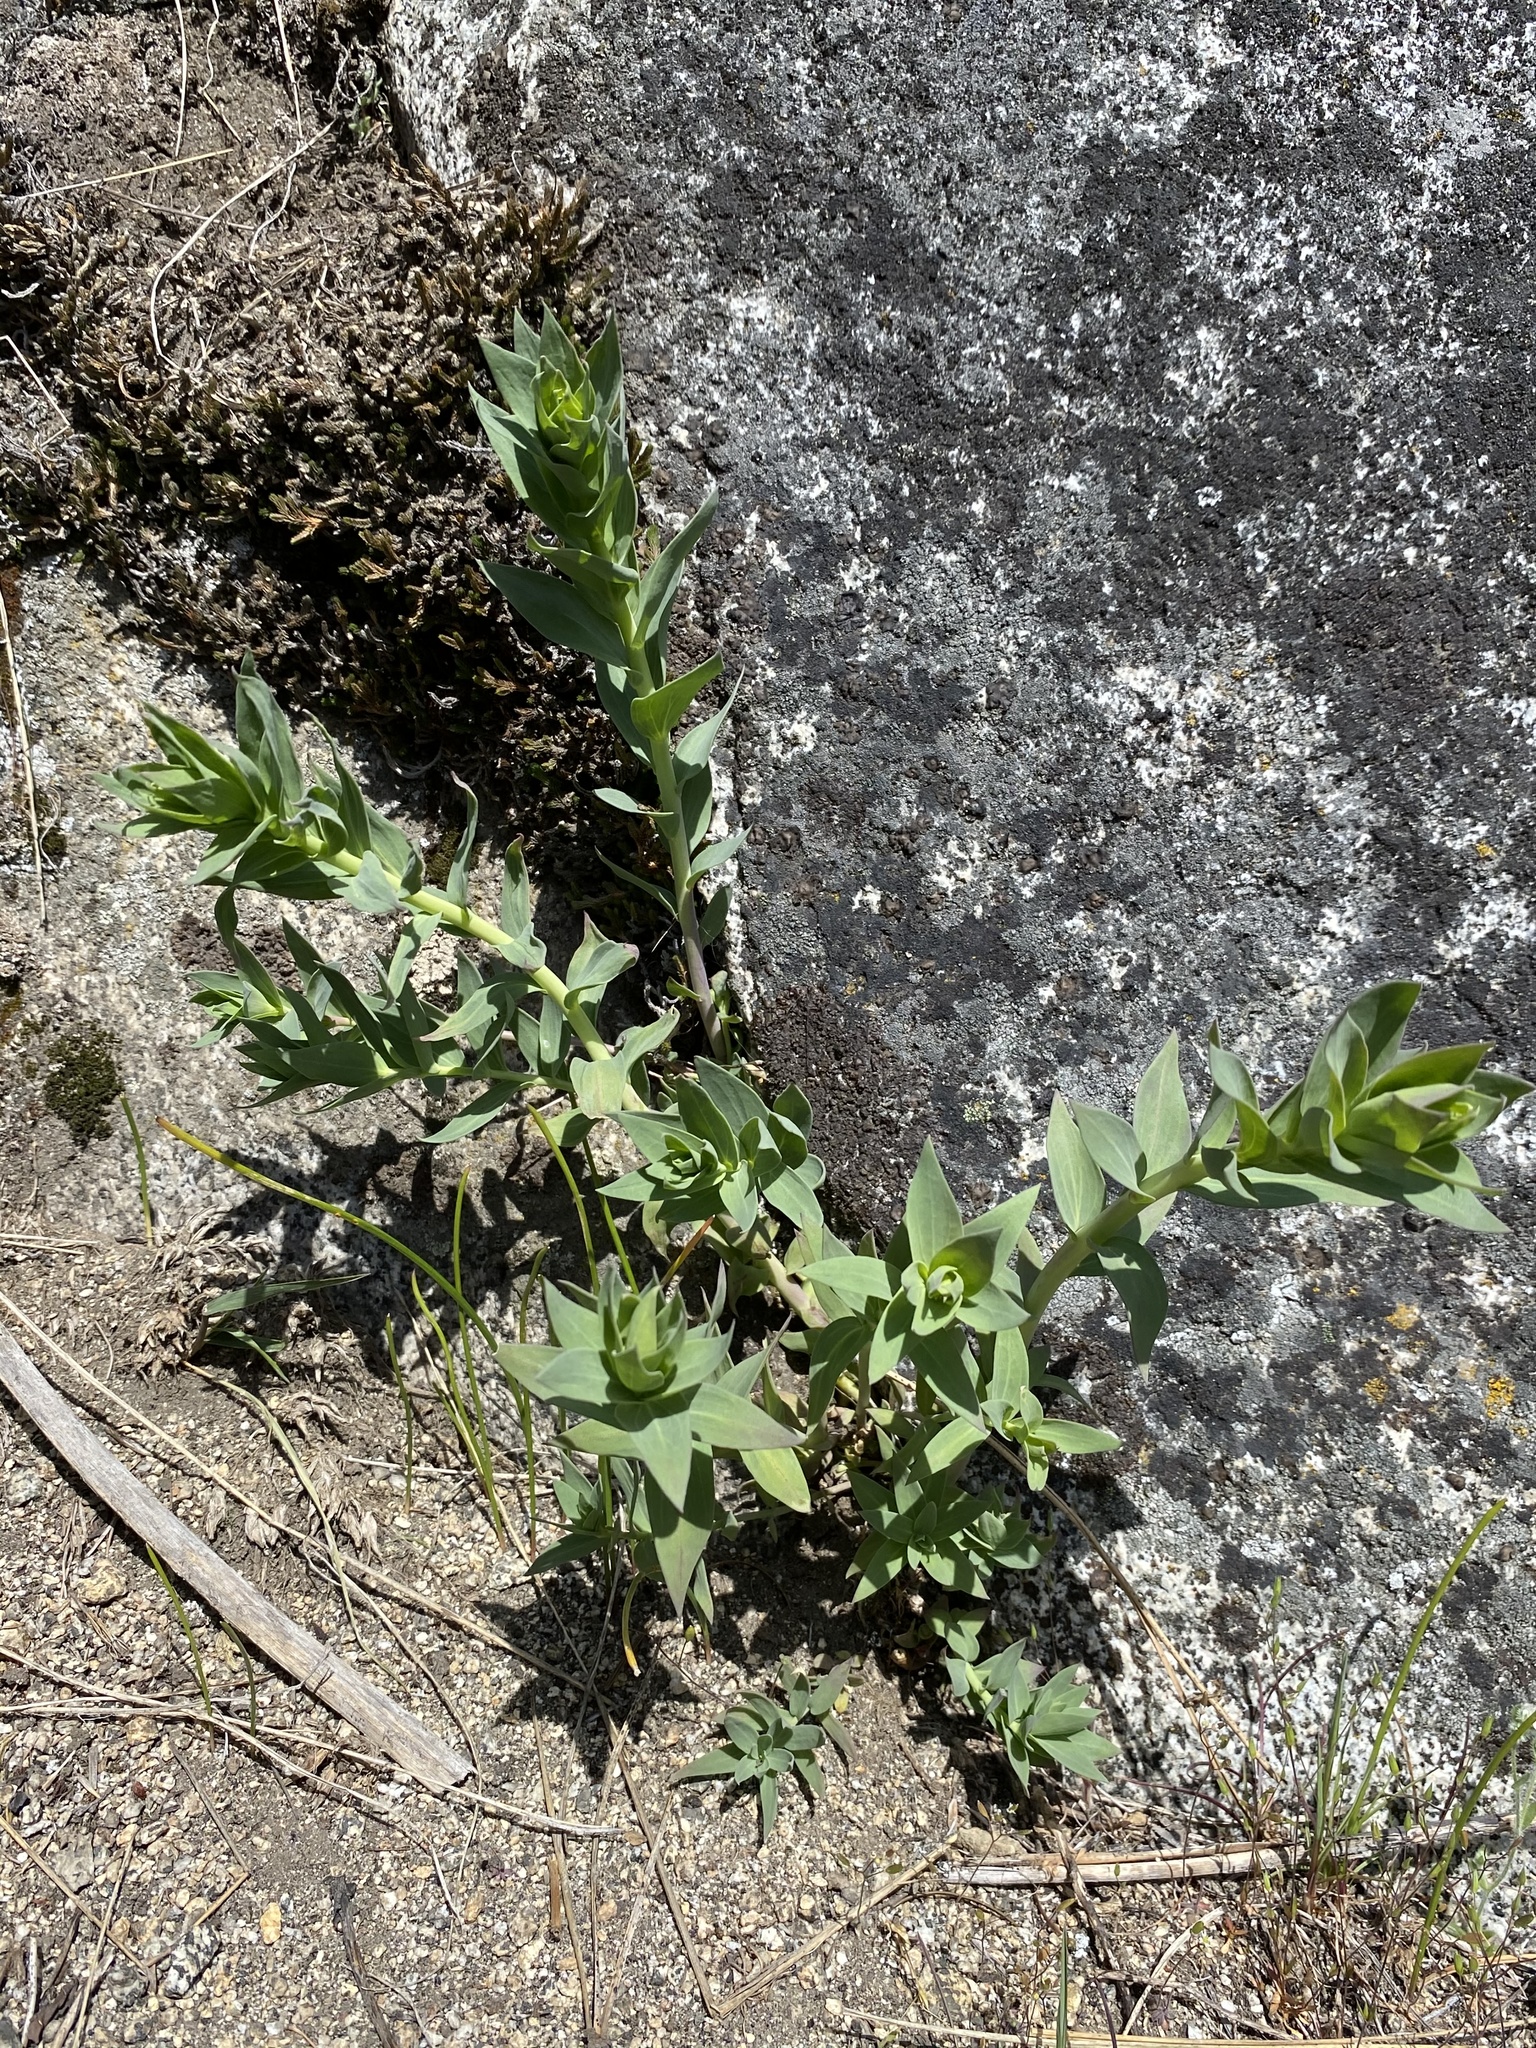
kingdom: Plantae
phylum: Tracheophyta
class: Magnoliopsida
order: Lamiales
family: Plantaginaceae
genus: Linaria
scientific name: Linaria dalmatica
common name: Dalmatian toadflax
